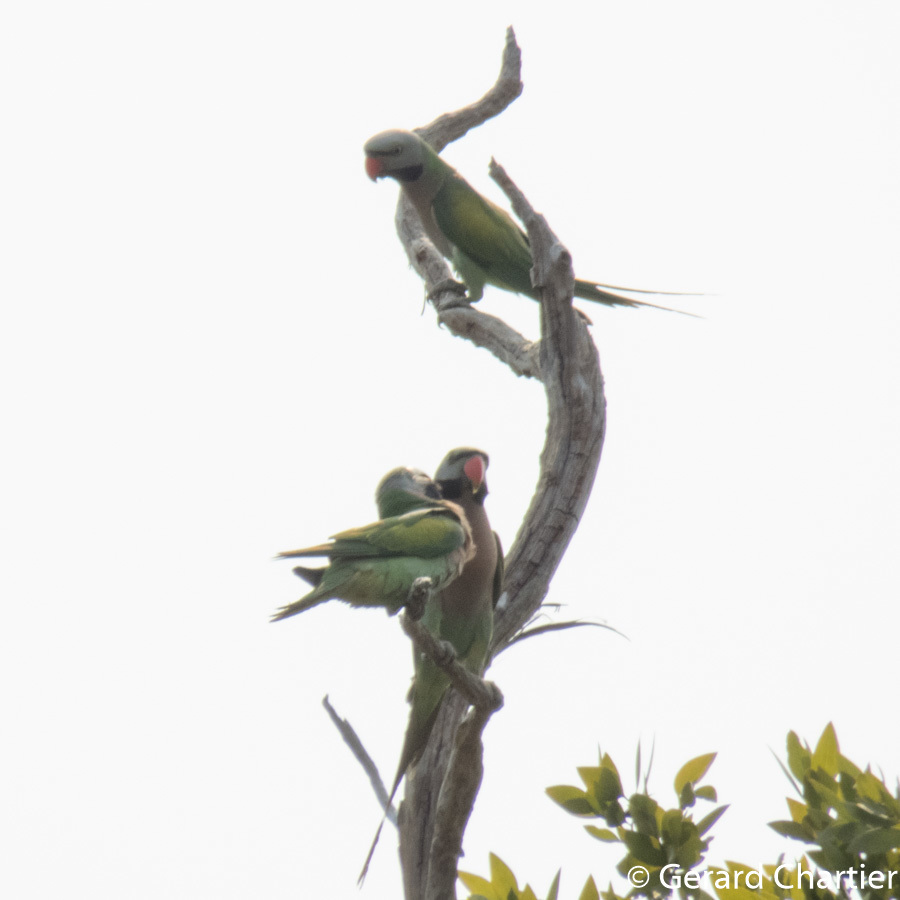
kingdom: Animalia
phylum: Chordata
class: Aves
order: Psittaciformes
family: Psittacidae
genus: Psittacula
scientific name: Psittacula alexandri
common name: Red-breasted parakeet
